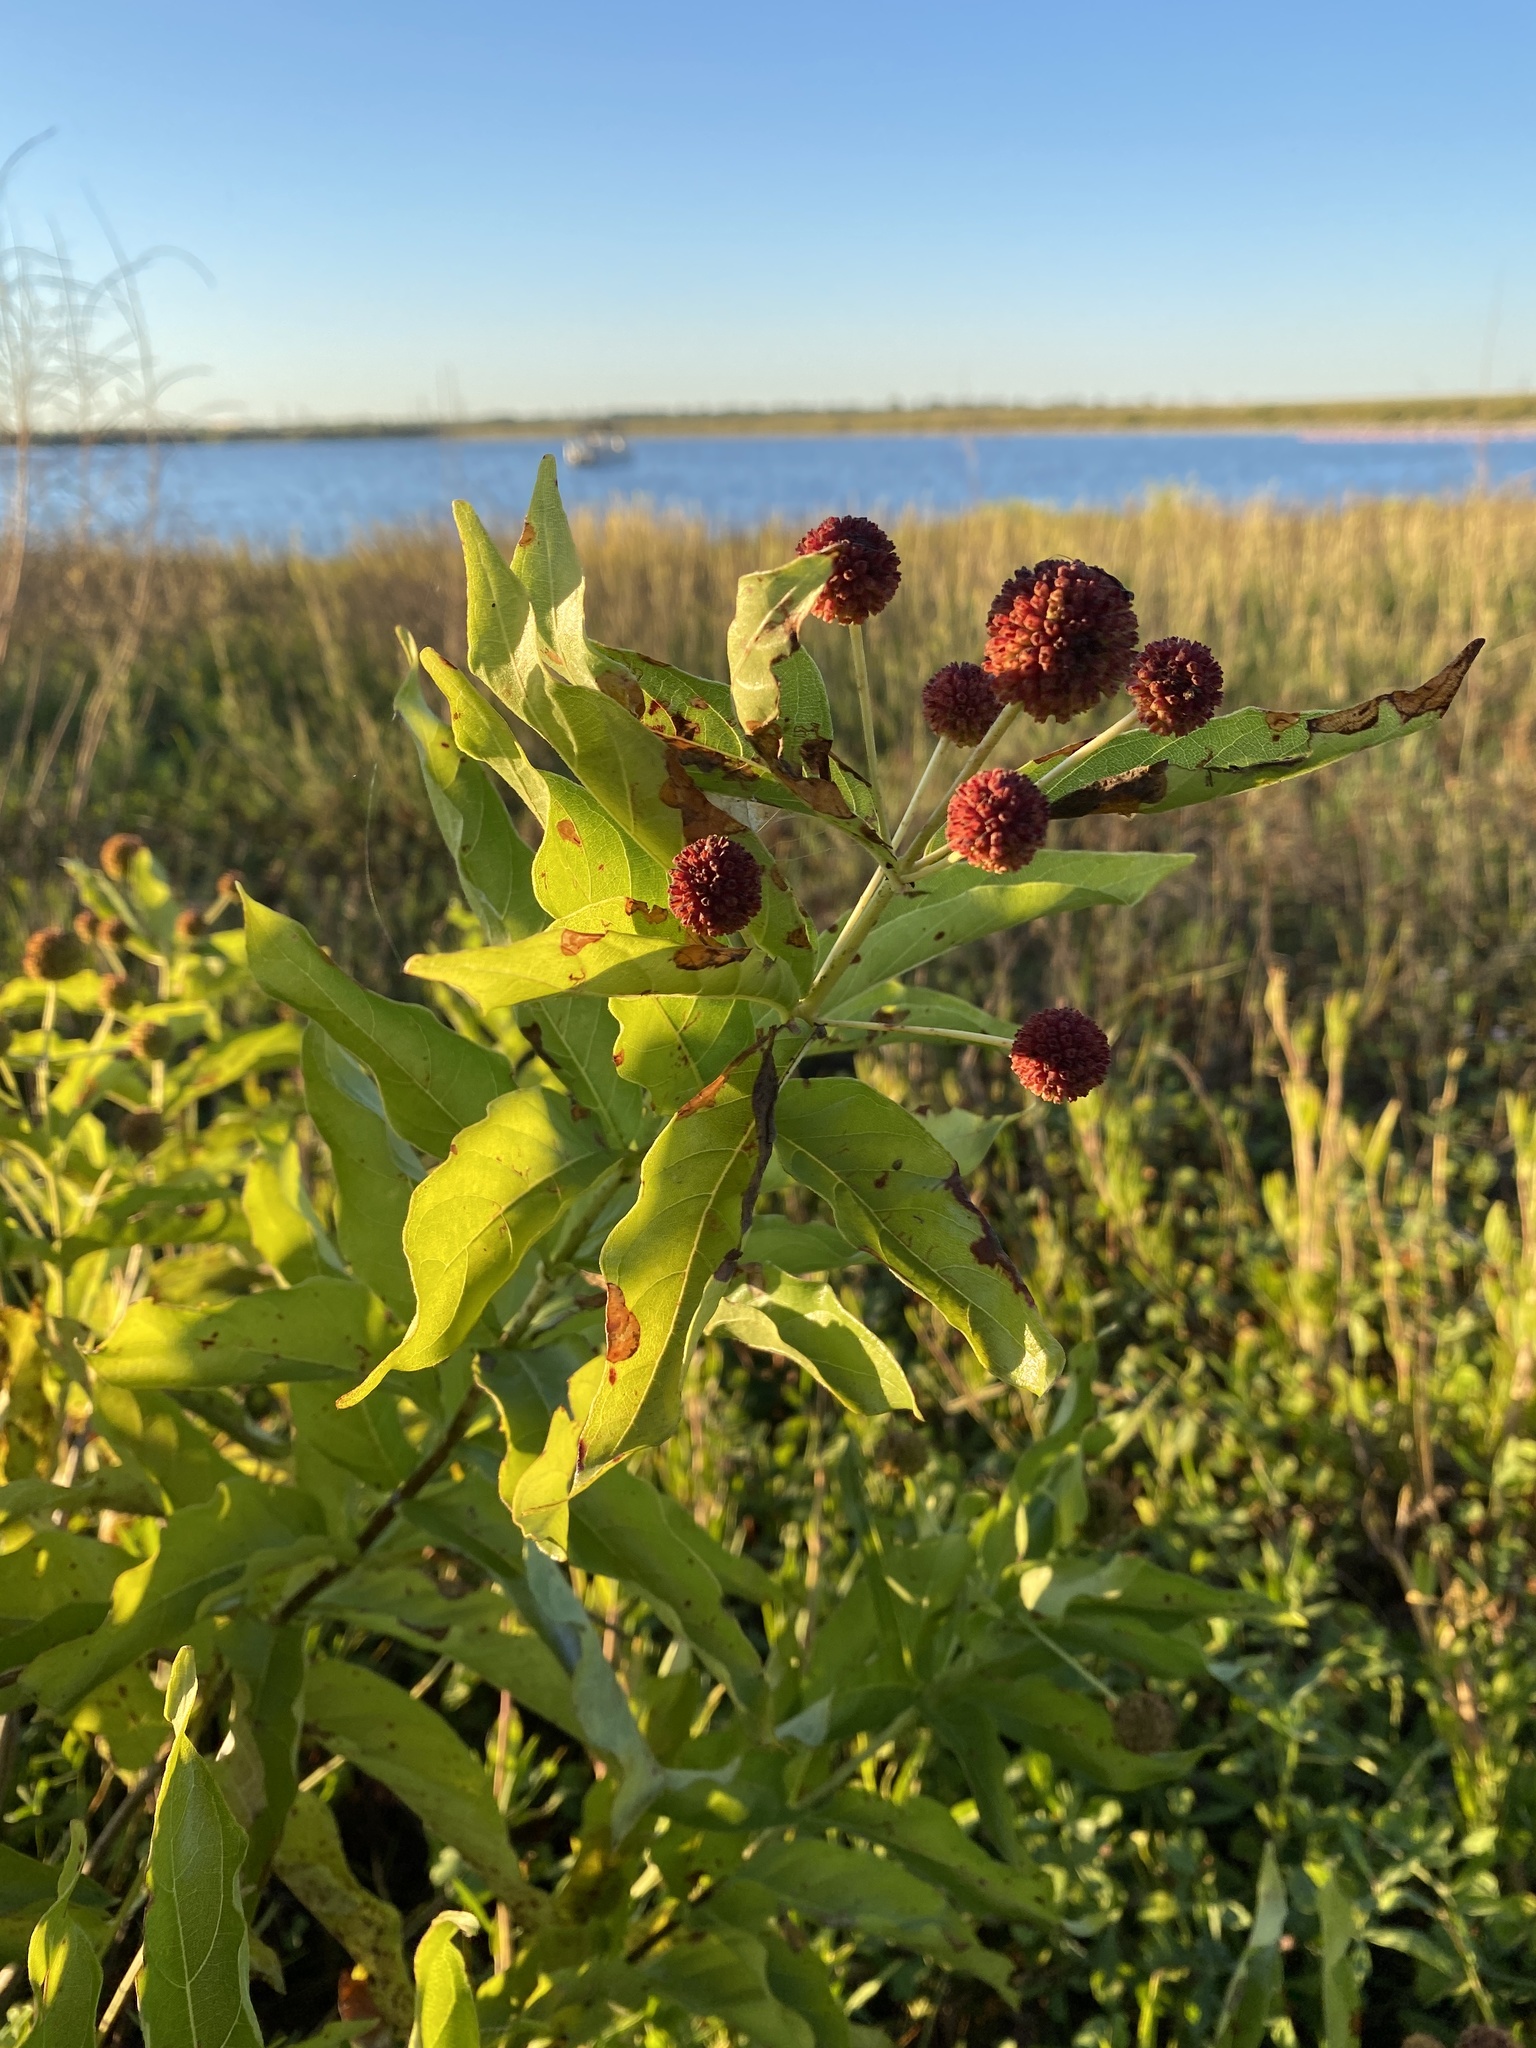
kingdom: Plantae
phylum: Tracheophyta
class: Magnoliopsida
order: Gentianales
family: Rubiaceae
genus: Cephalanthus
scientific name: Cephalanthus occidentalis
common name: Button-willow
